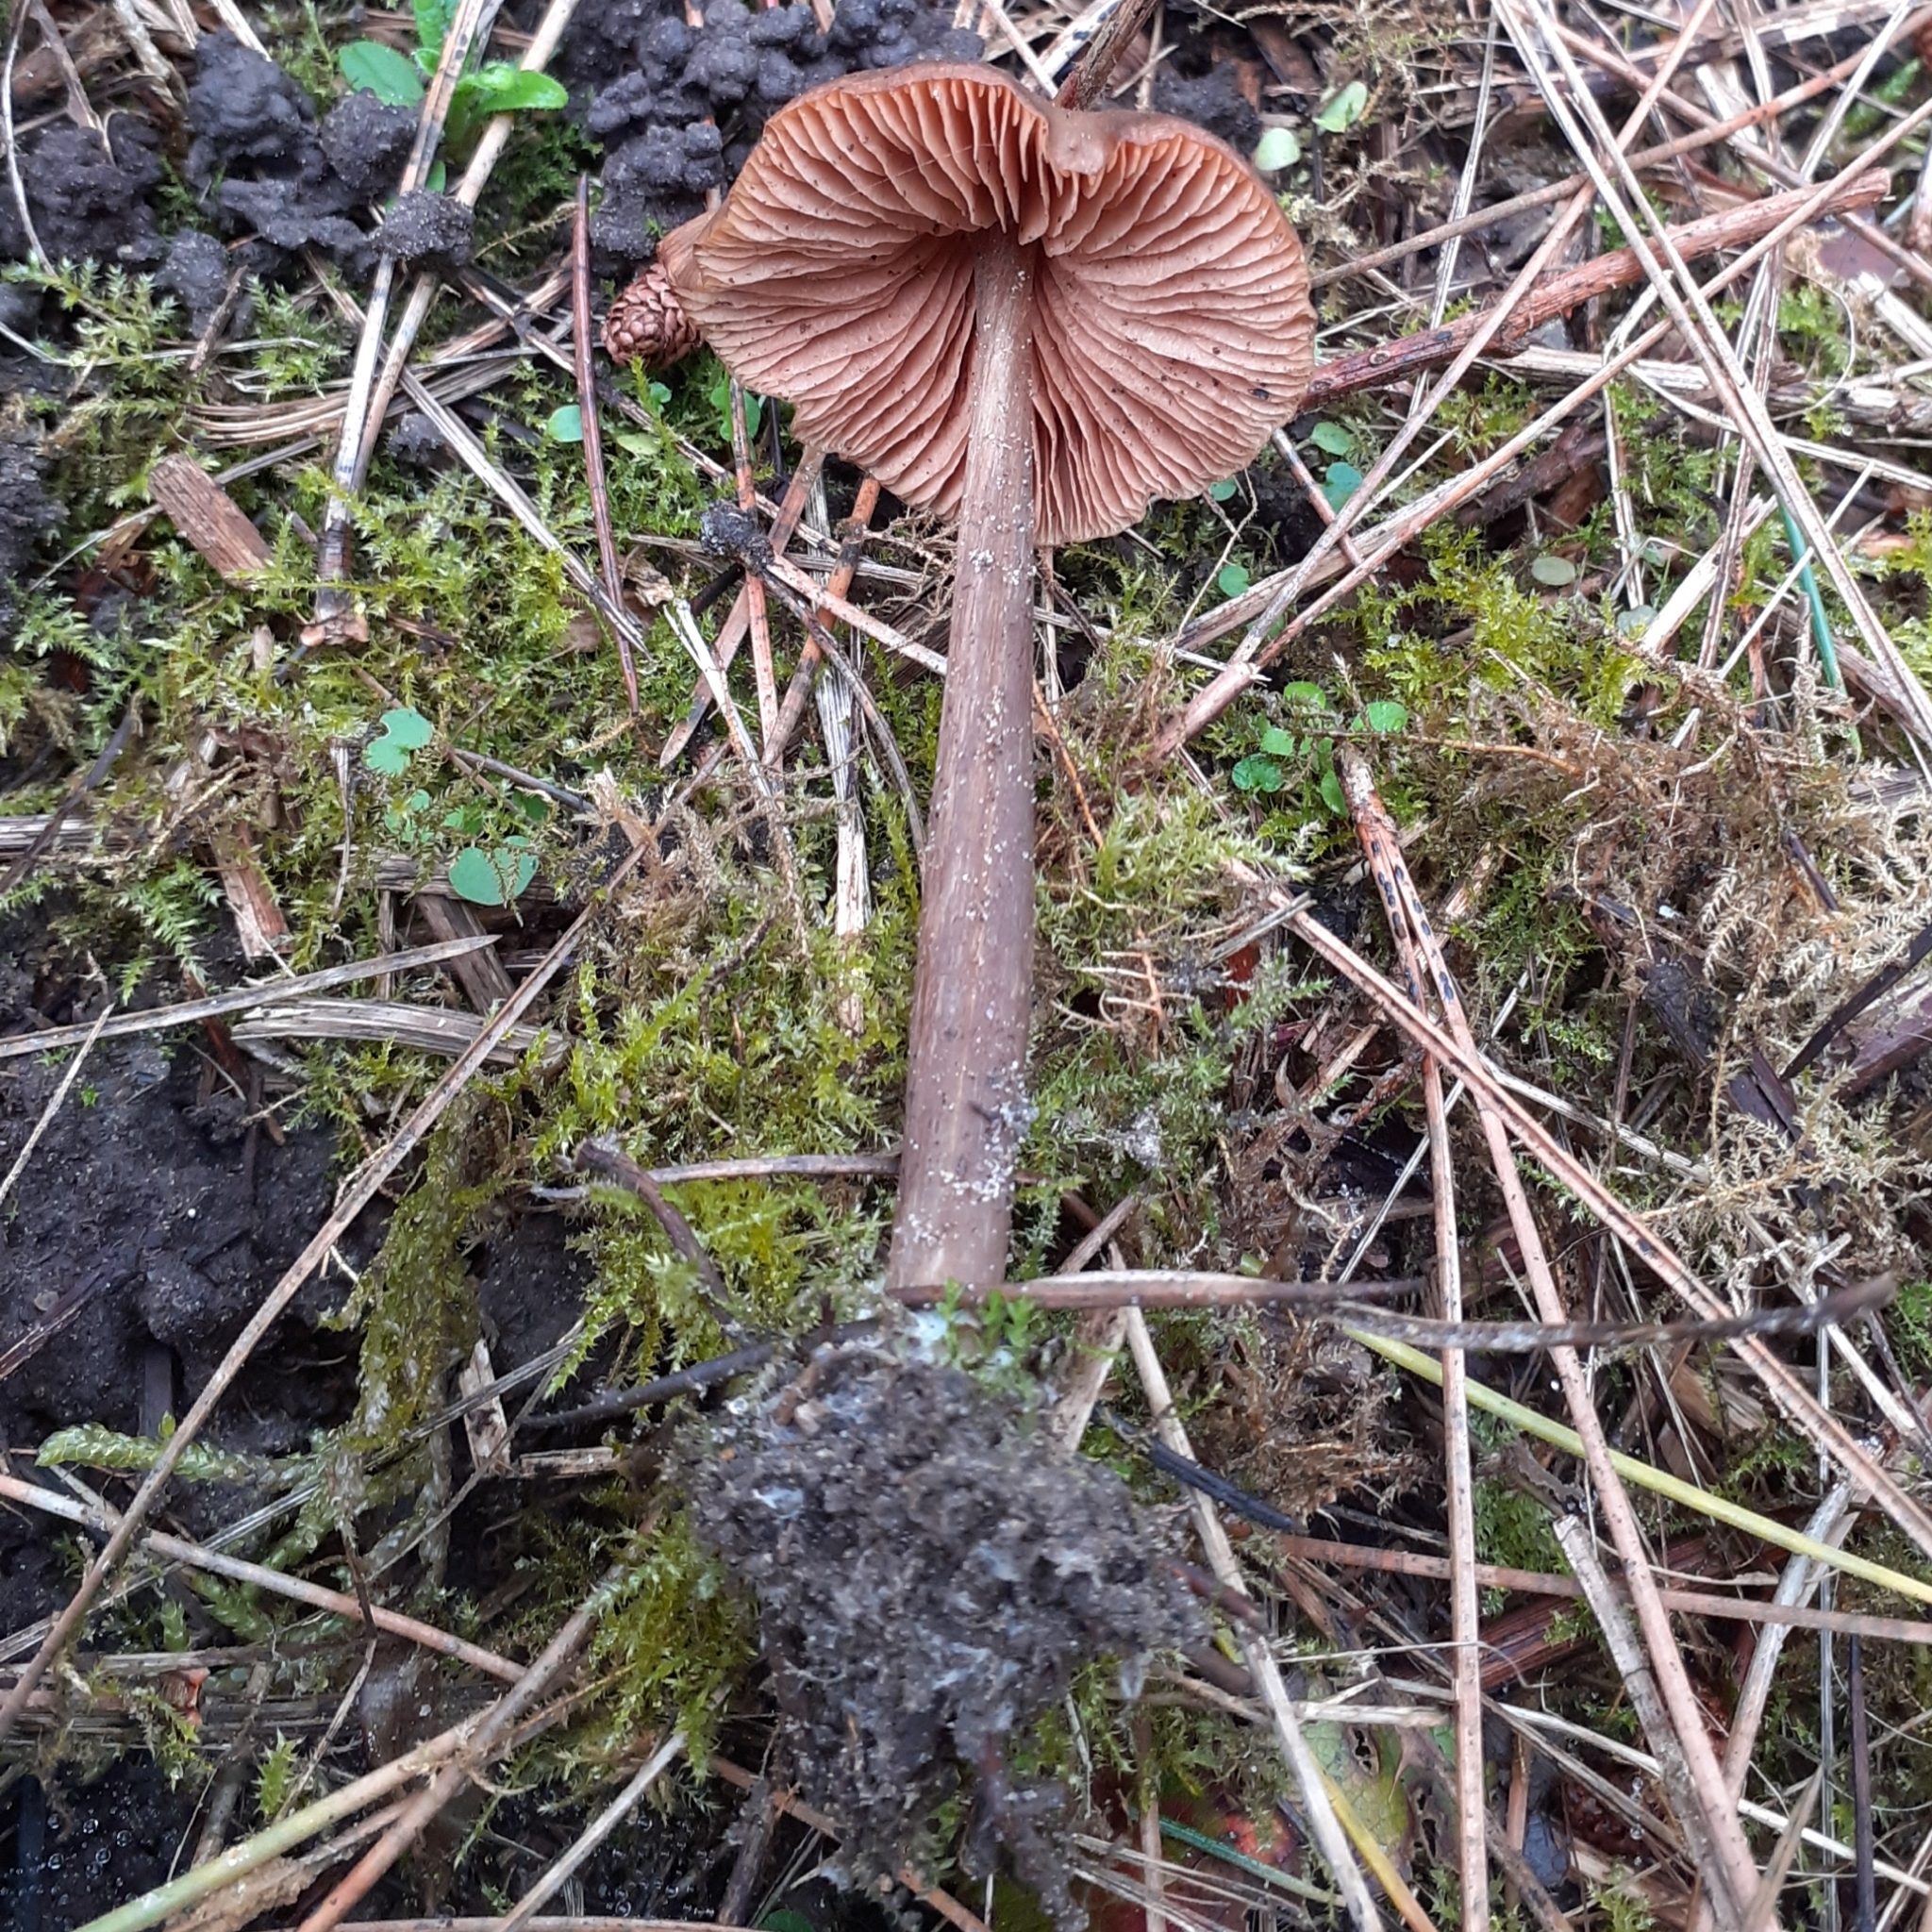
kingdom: Fungi
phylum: Basidiomycota
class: Agaricomycetes
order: Agaricales
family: Entolomataceae
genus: Entoloma
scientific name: Entoloma sericeum
